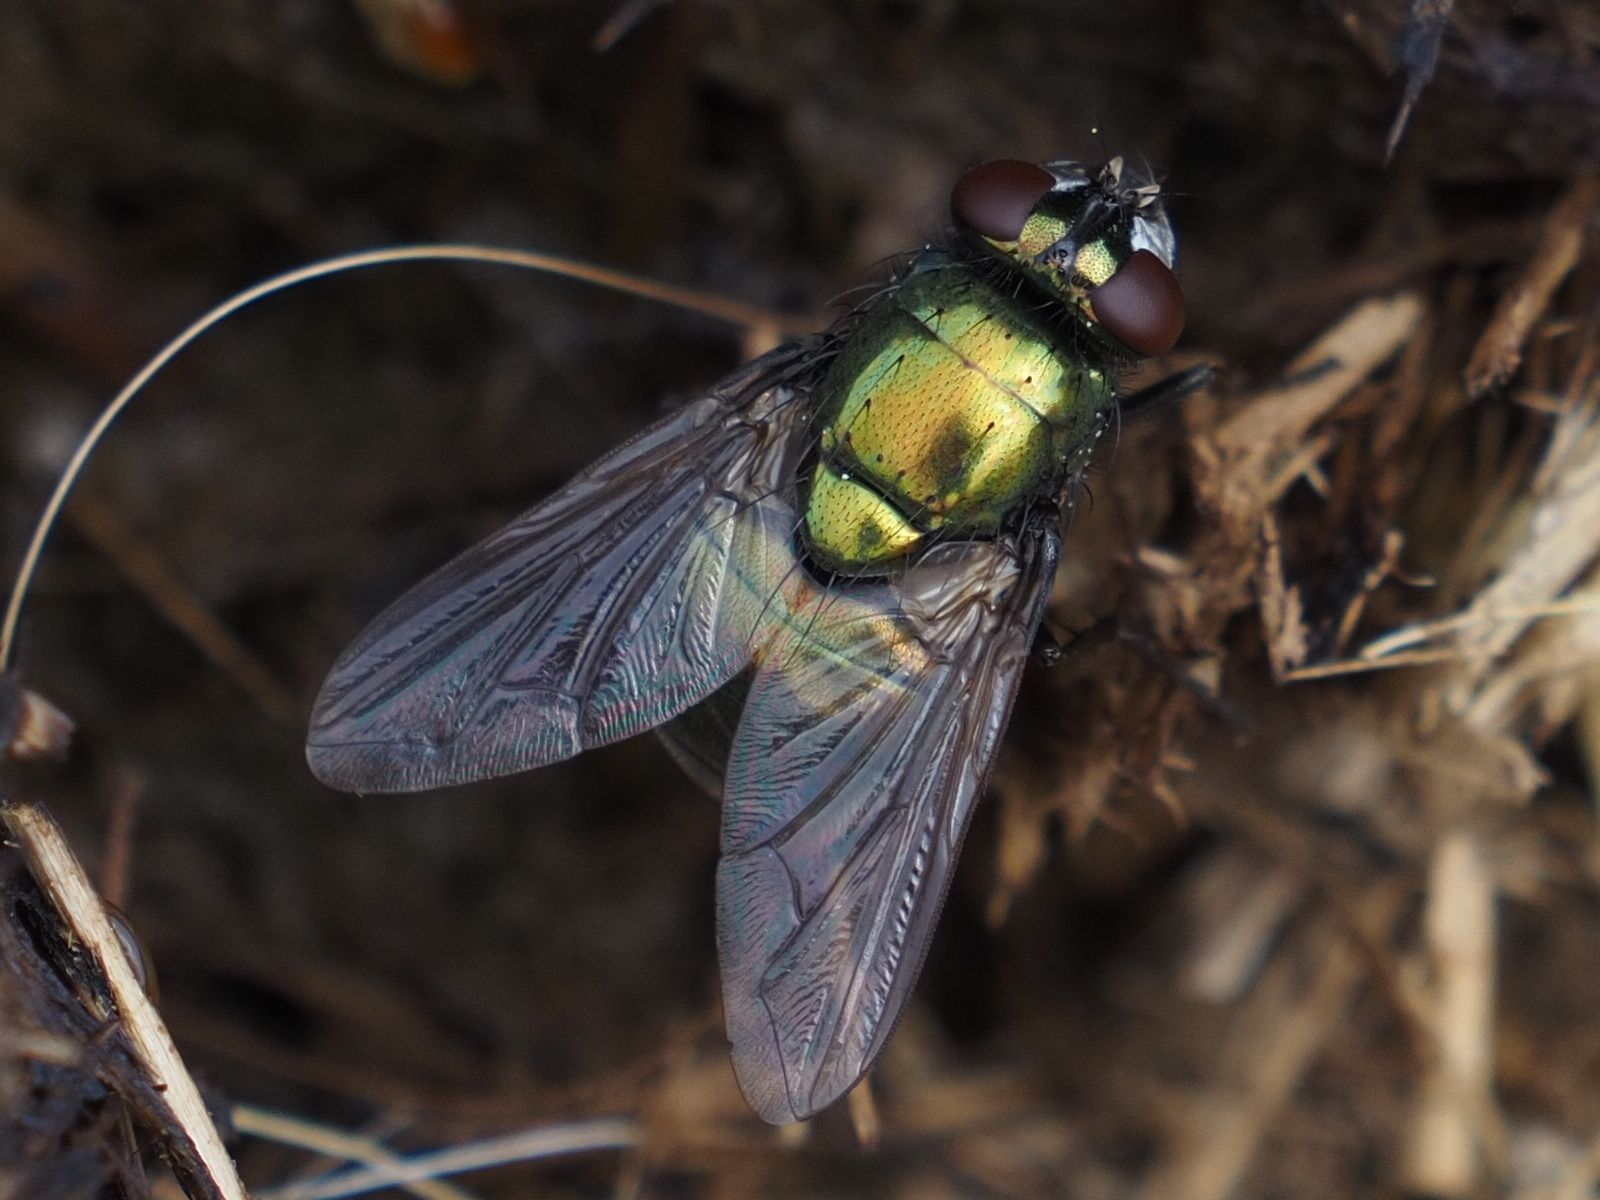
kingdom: Animalia
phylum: Arthropoda
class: Insecta
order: Diptera
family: Muscidae
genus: Neomyia
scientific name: Neomyia cornicina
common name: House fly
